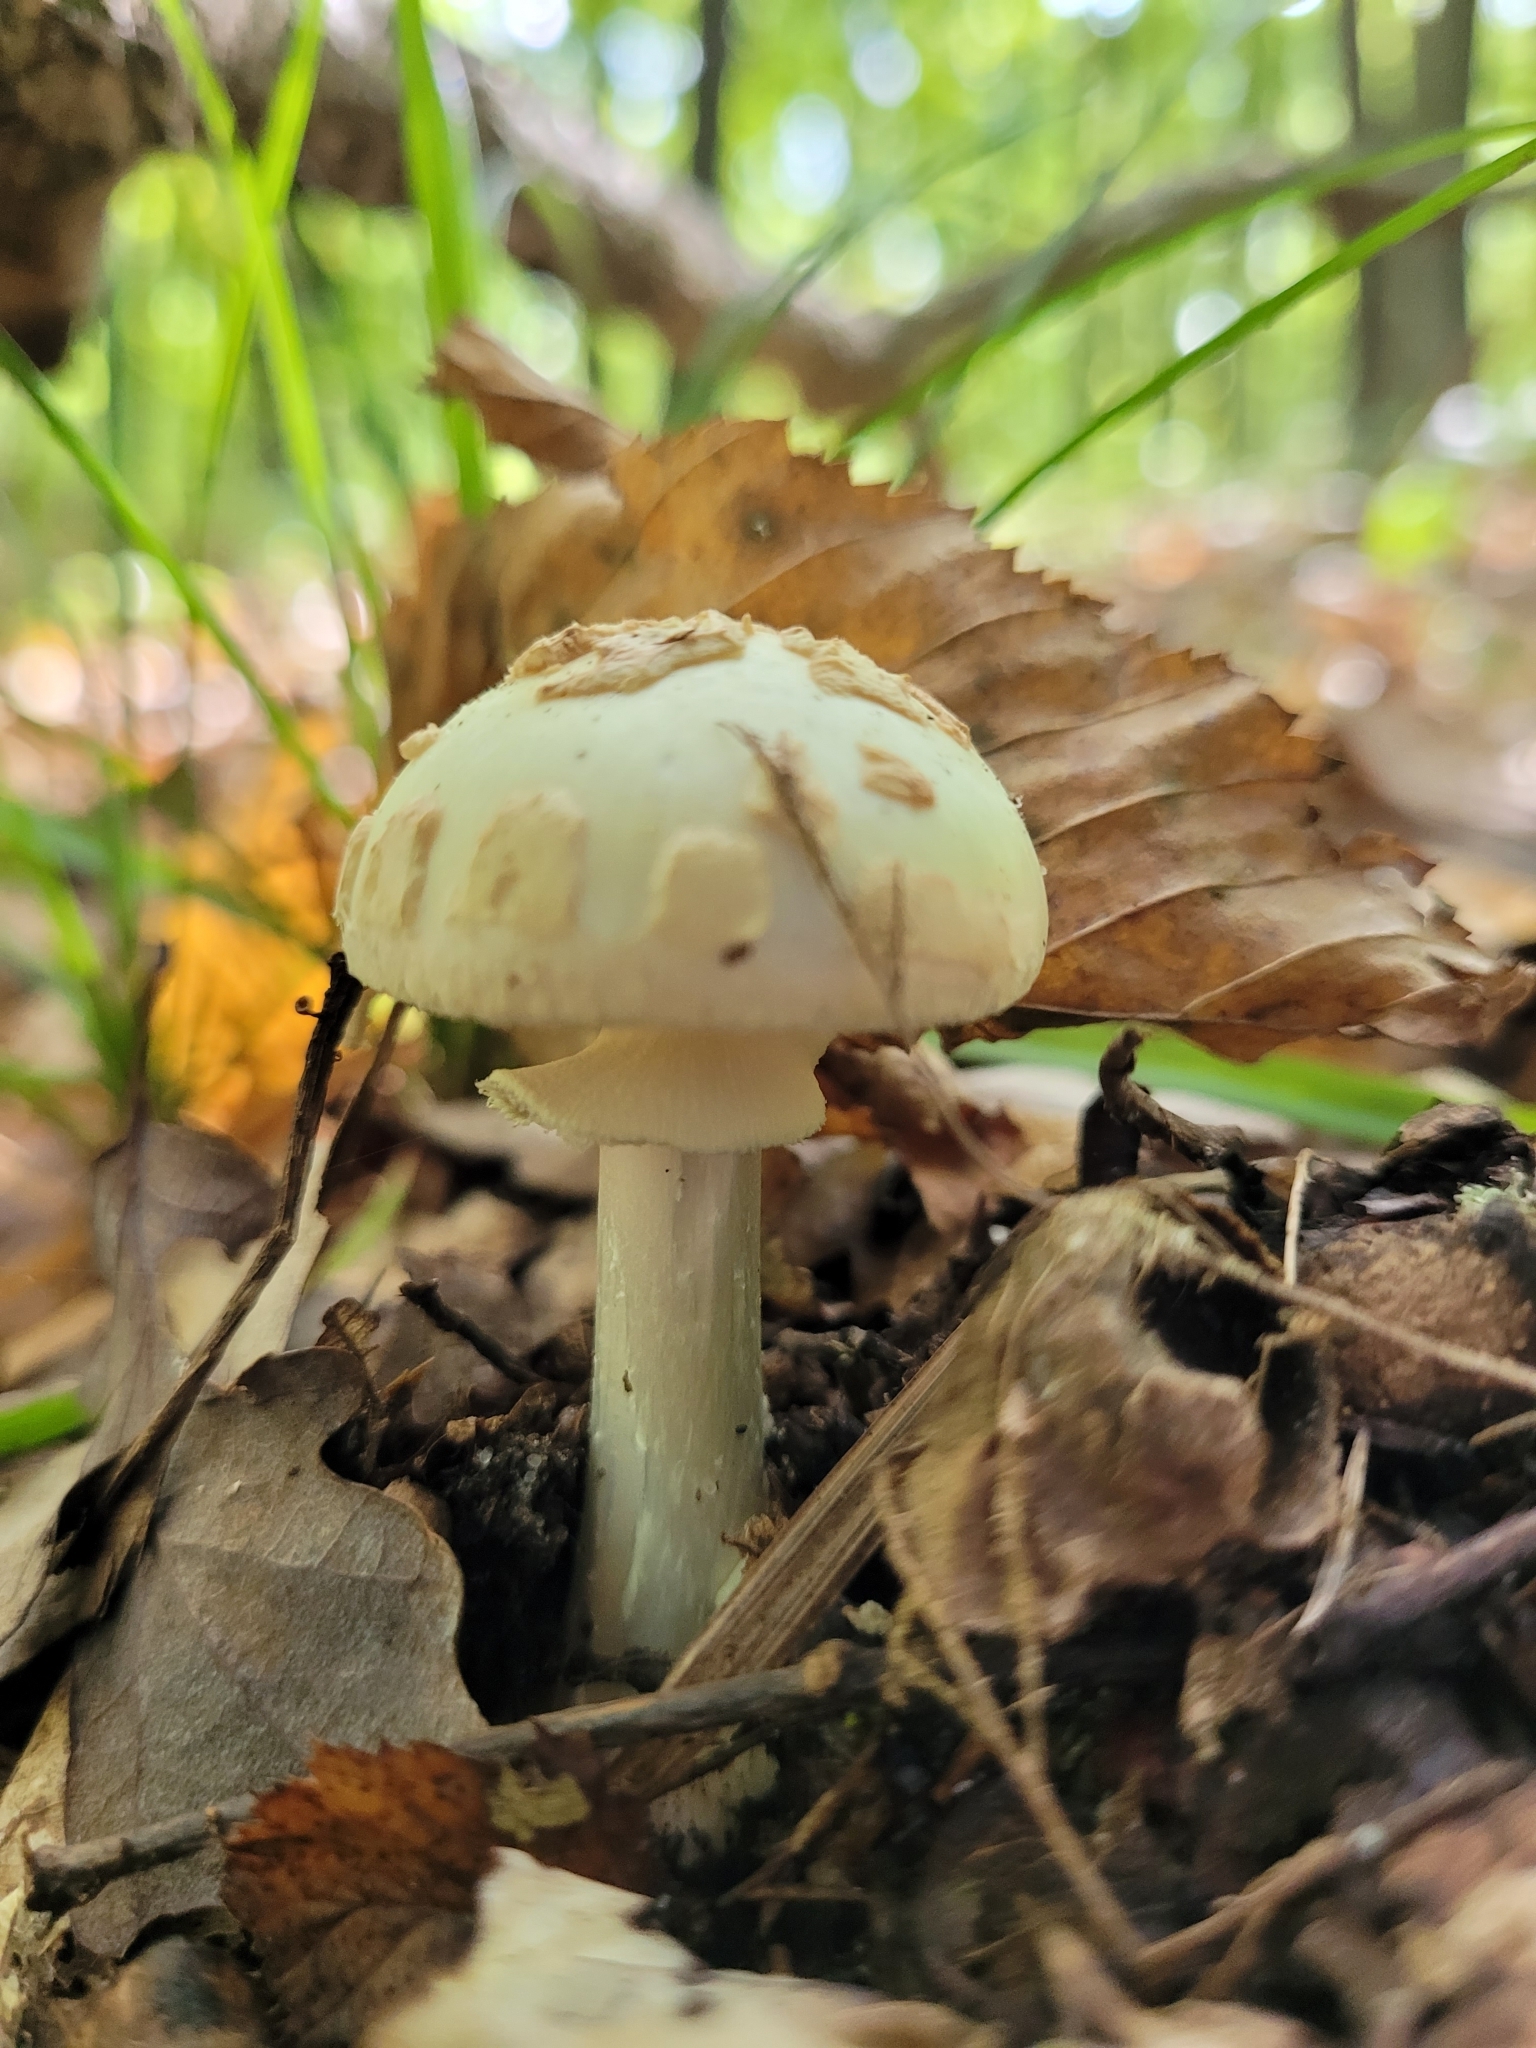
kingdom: Fungi
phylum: Basidiomycota
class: Agaricomycetes
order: Agaricales
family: Amanitaceae
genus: Amanita
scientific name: Amanita citrina
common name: False death-cap
